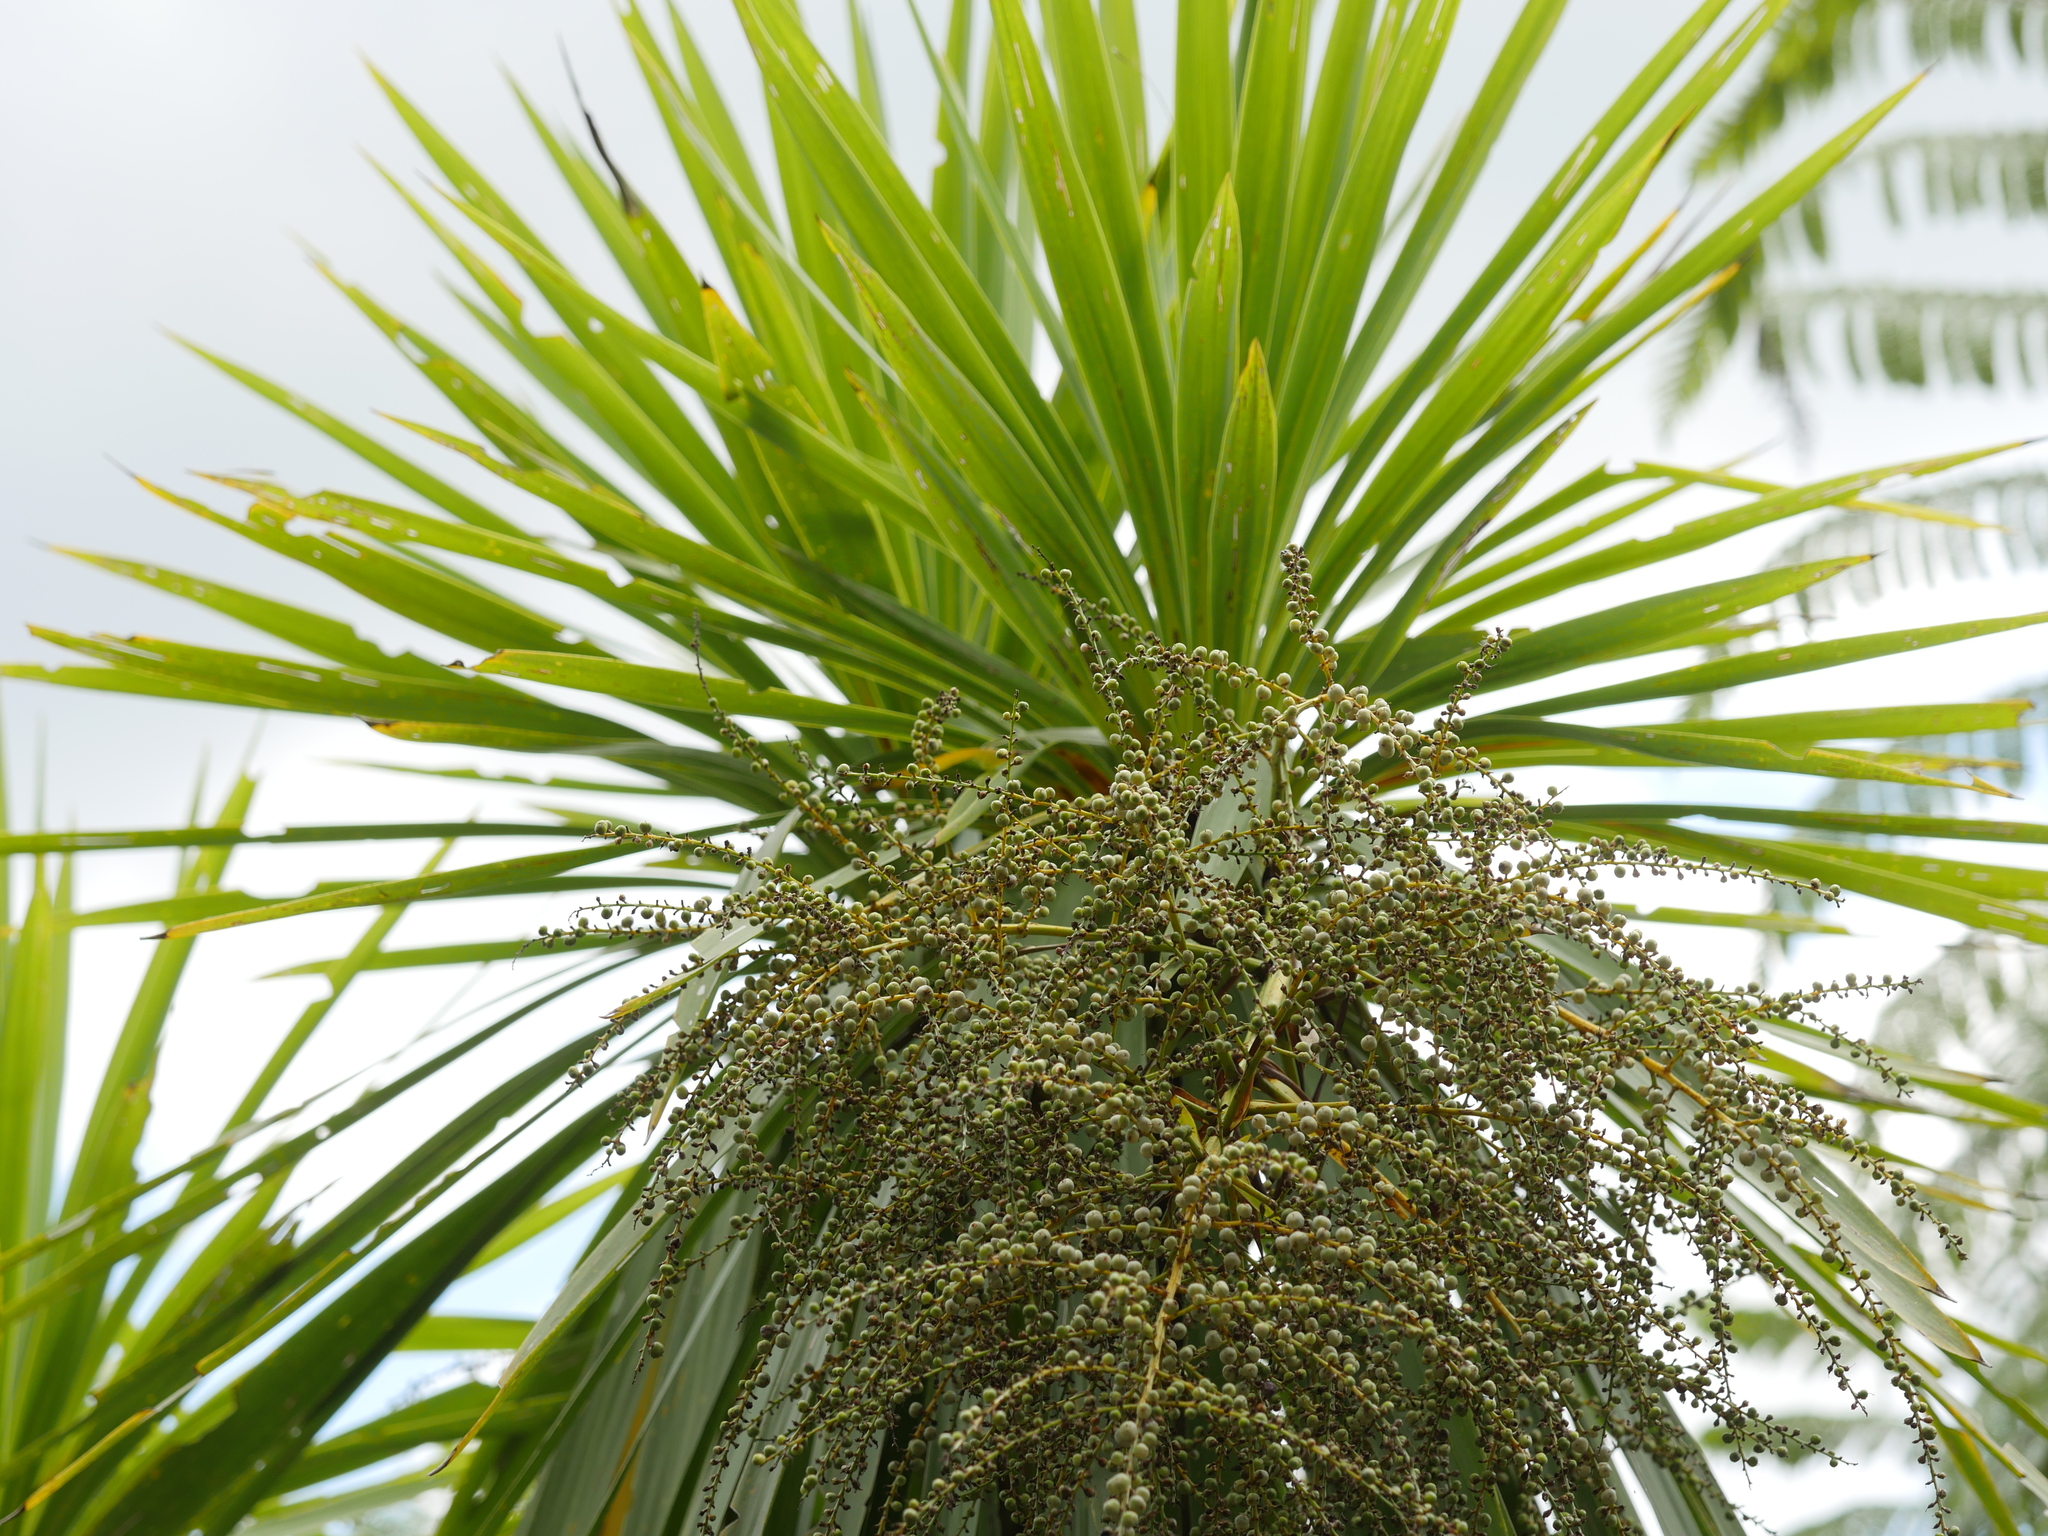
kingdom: Plantae
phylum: Tracheophyta
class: Liliopsida
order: Asparagales
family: Asparagaceae
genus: Cordyline
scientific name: Cordyline australis
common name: Cabbage-palm
